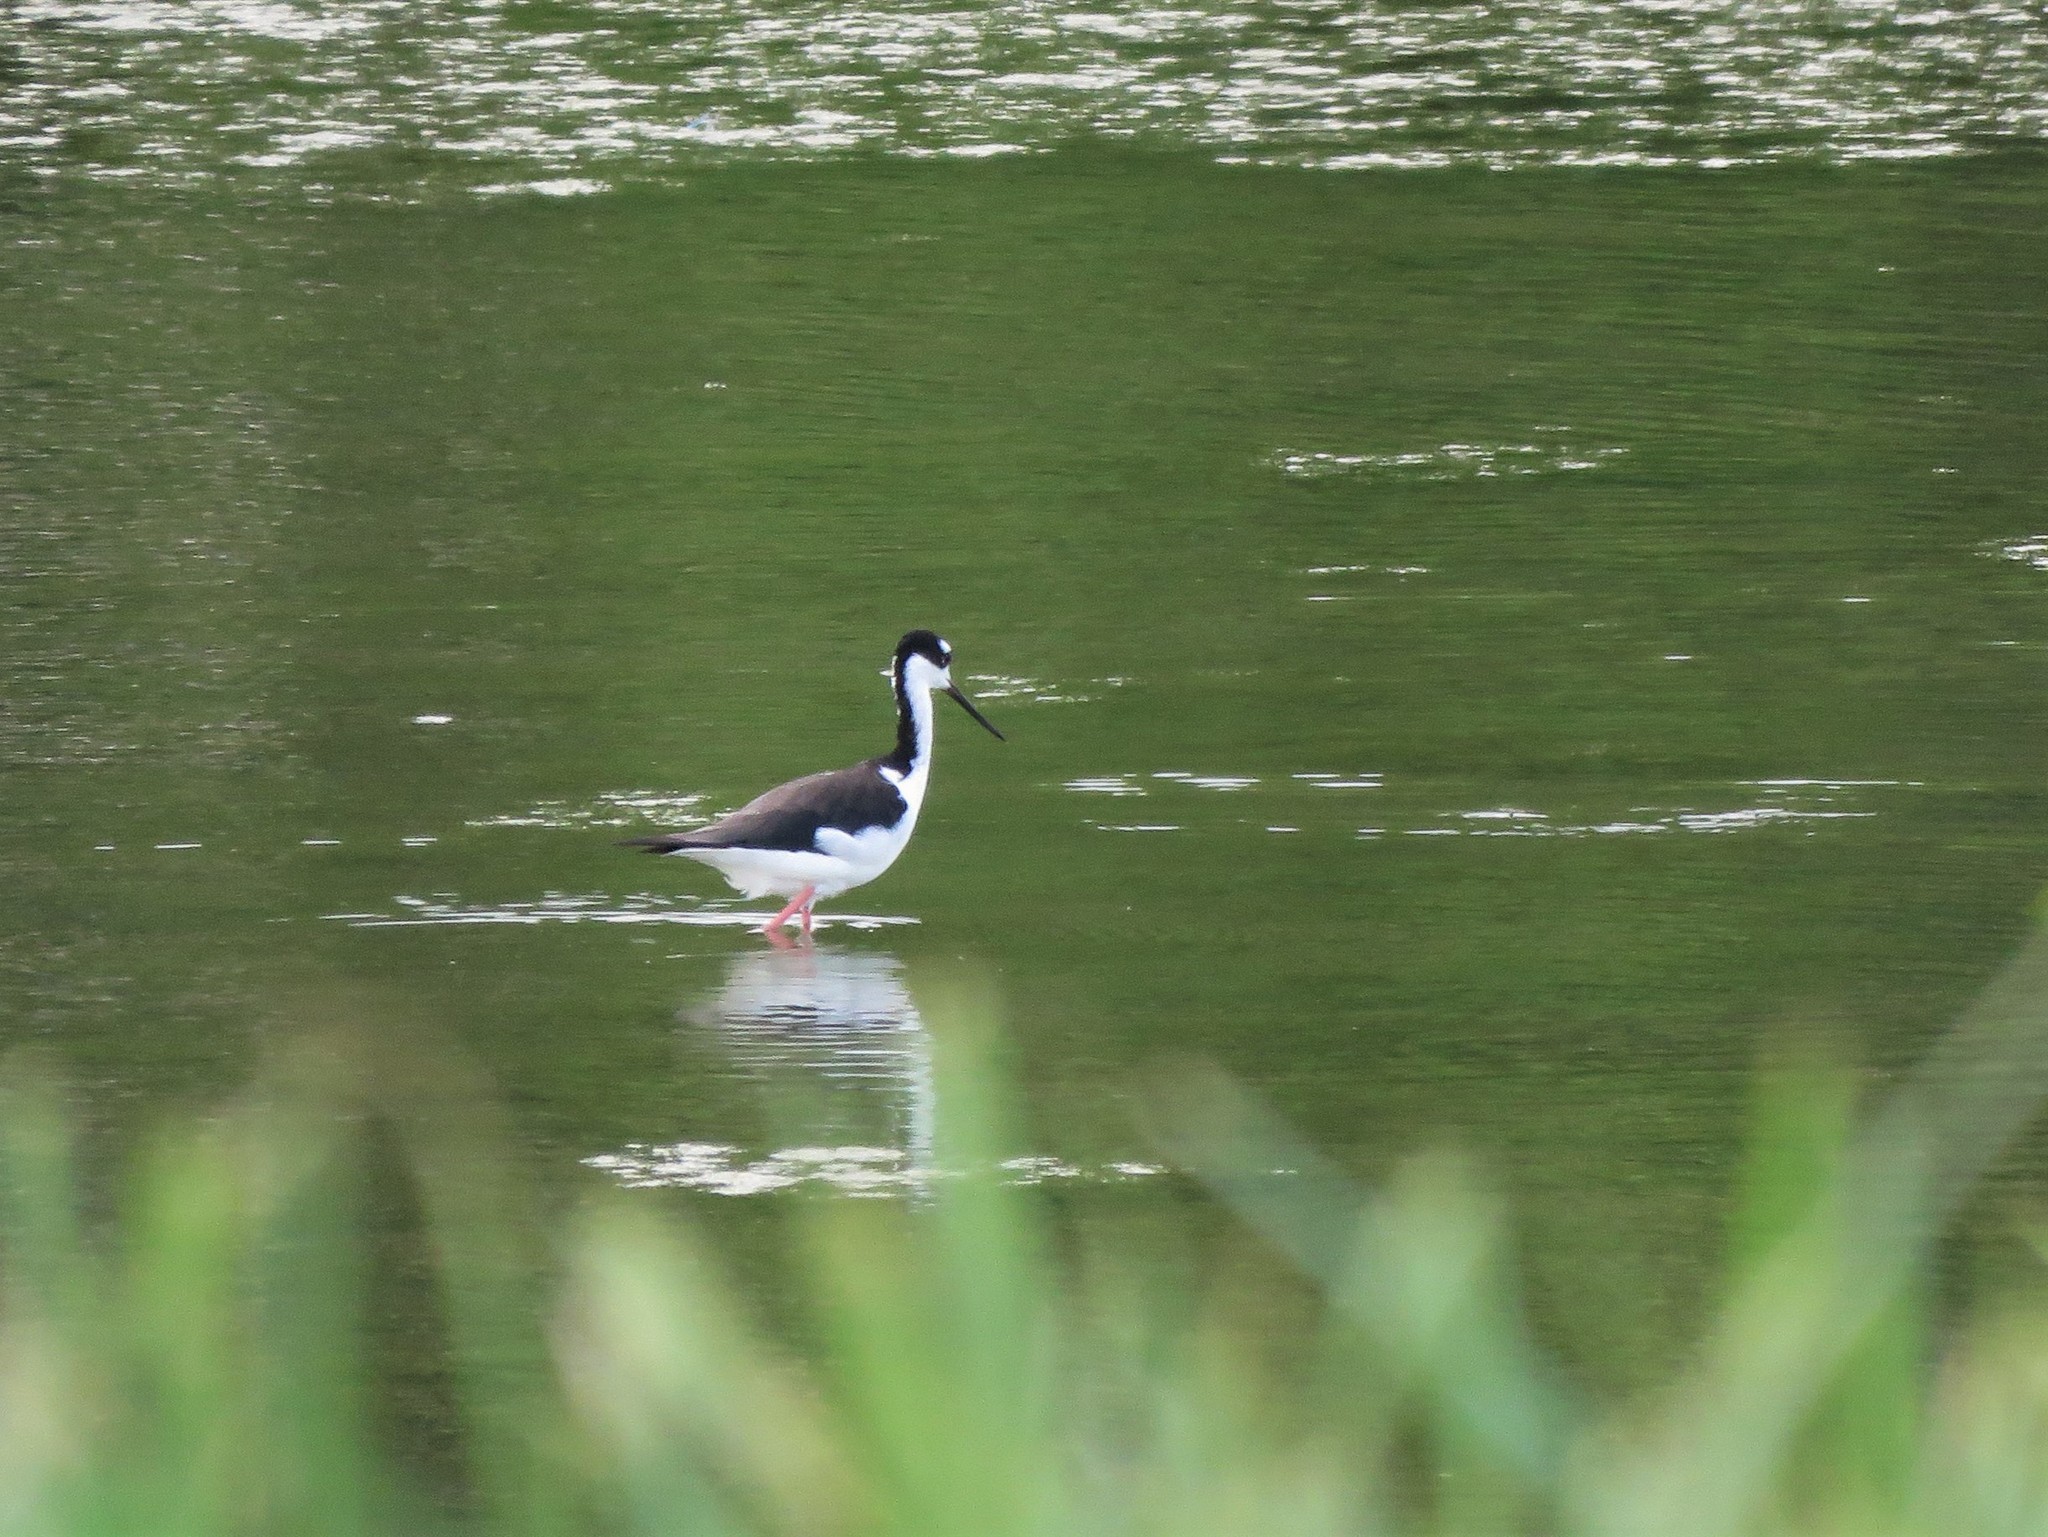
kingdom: Animalia
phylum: Chordata
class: Aves
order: Charadriiformes
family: Recurvirostridae
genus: Himantopus
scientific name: Himantopus mexicanus
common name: Black-necked stilt
